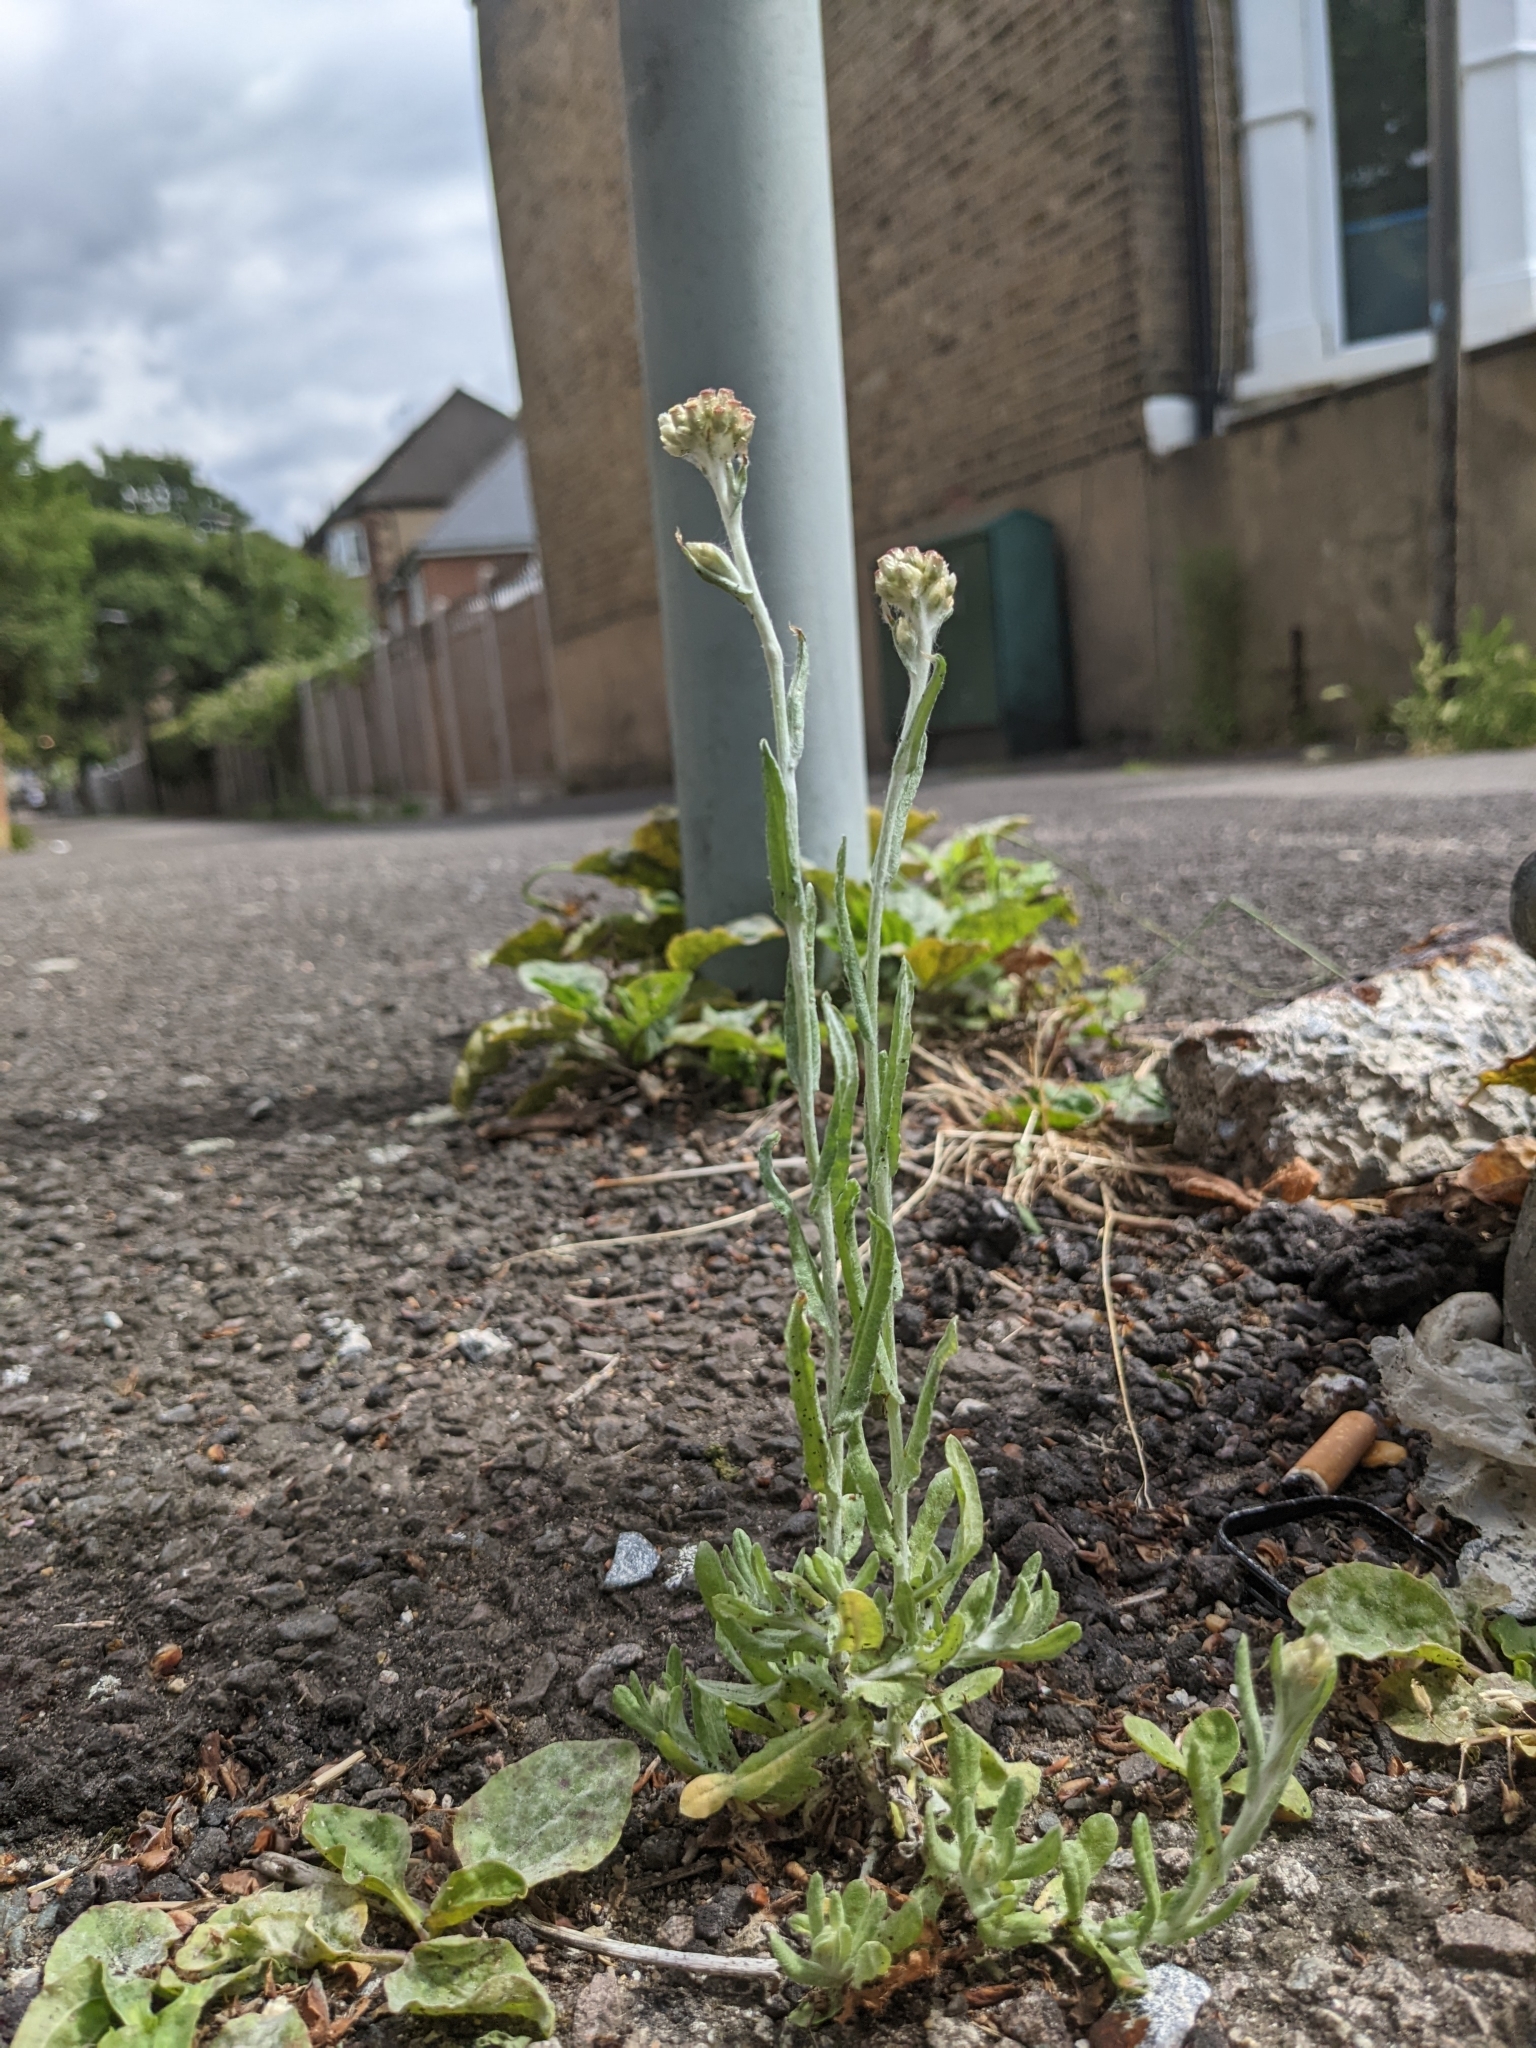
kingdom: Plantae
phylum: Tracheophyta
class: Magnoliopsida
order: Asterales
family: Asteraceae
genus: Helichrysum
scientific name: Helichrysum luteoalbum
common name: Daisy
